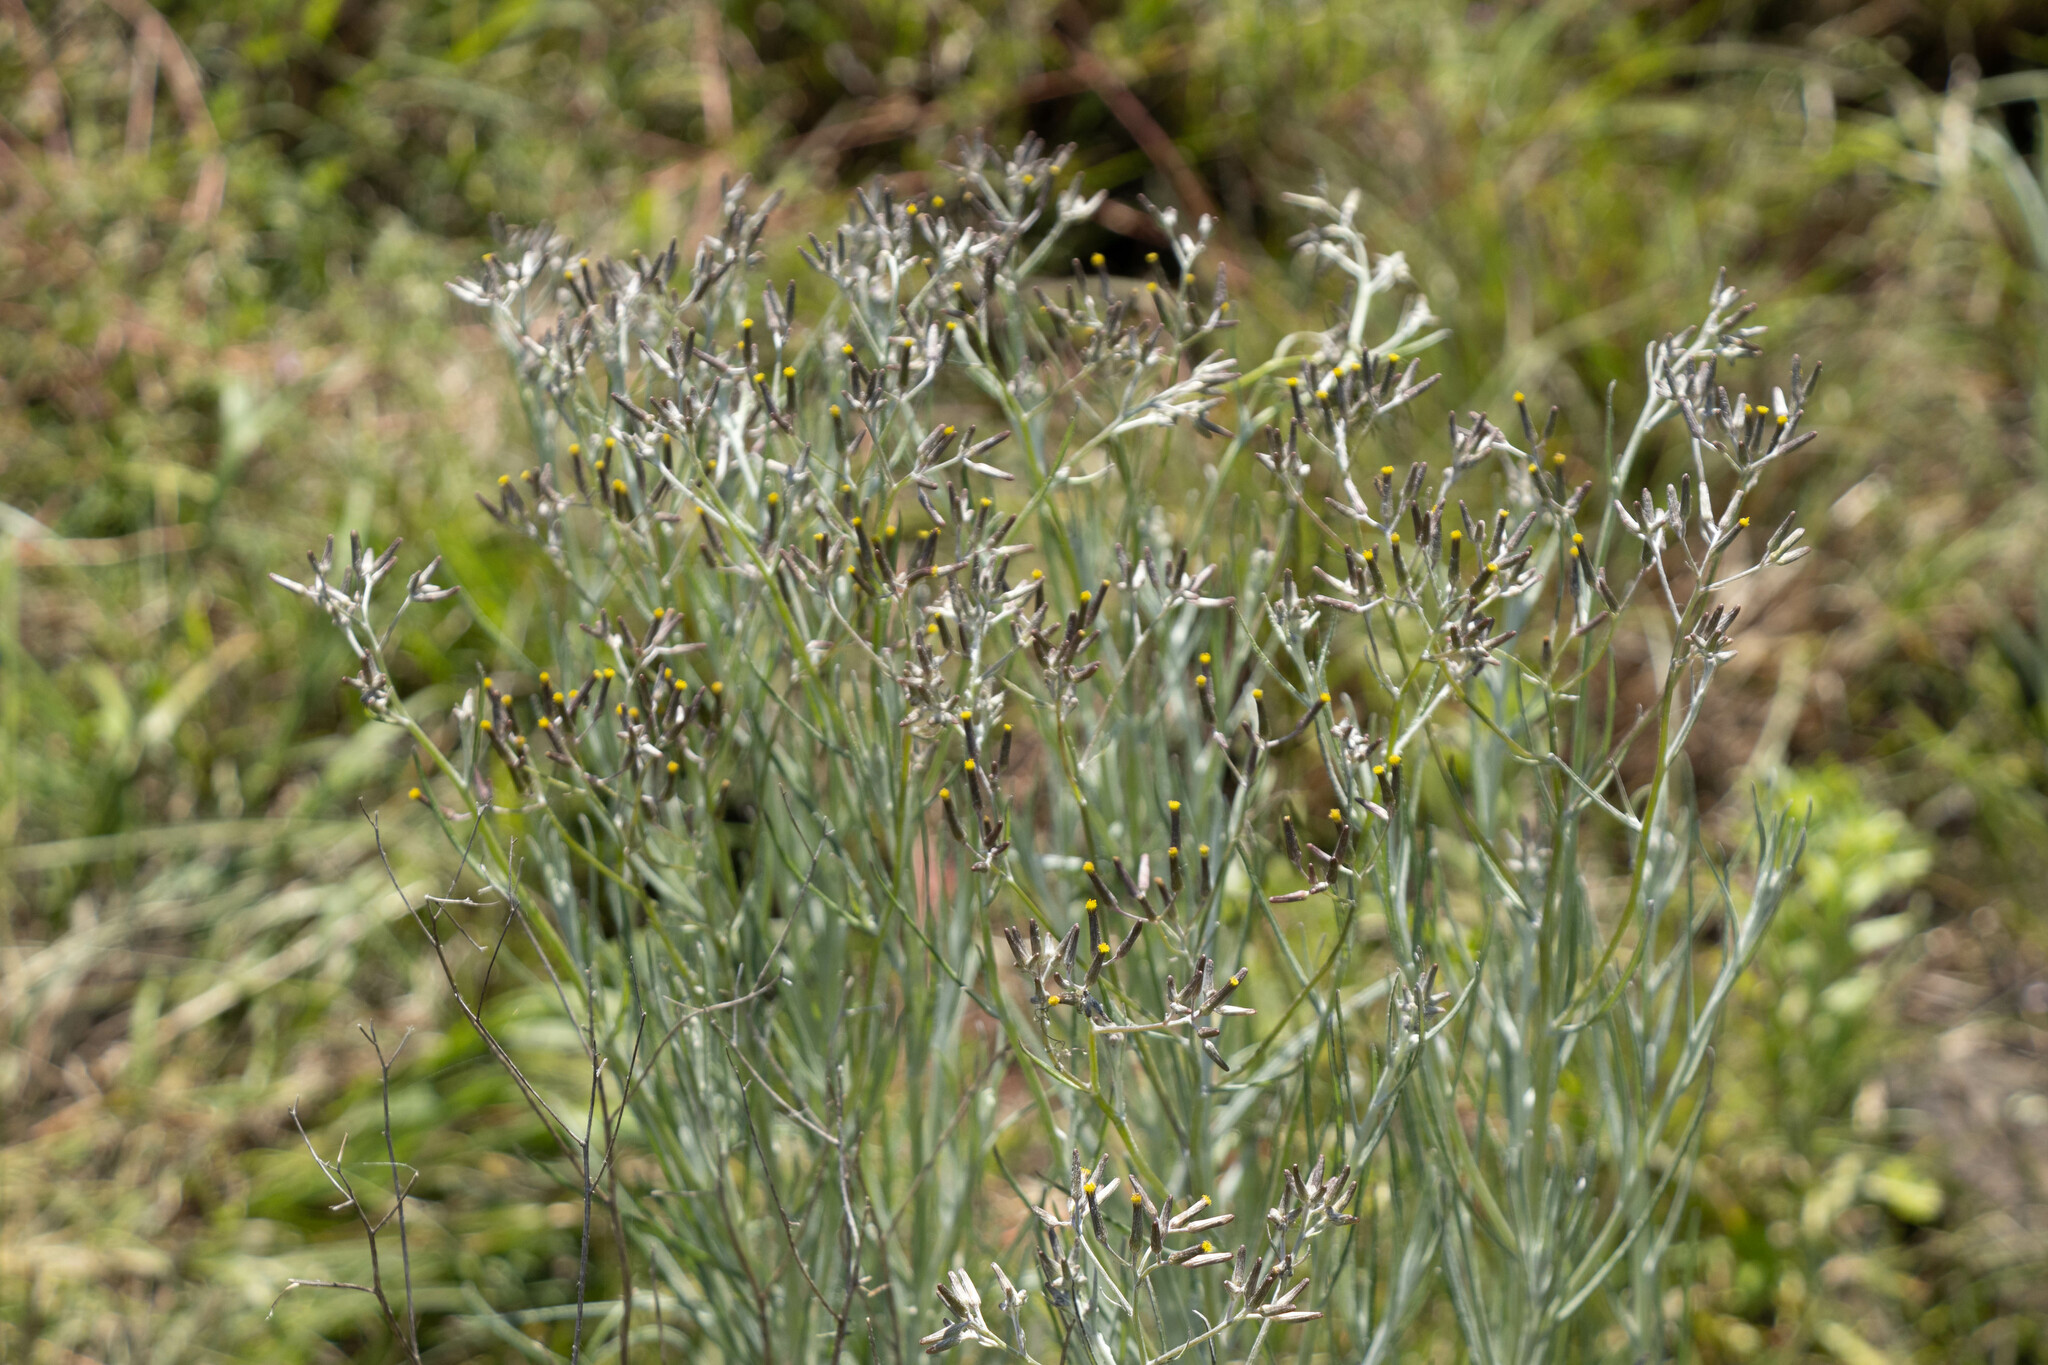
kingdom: Plantae
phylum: Tracheophyta
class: Magnoliopsida
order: Asterales
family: Asteraceae
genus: Senecio
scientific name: Senecio quadridentatus
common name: Cotton fireweed
